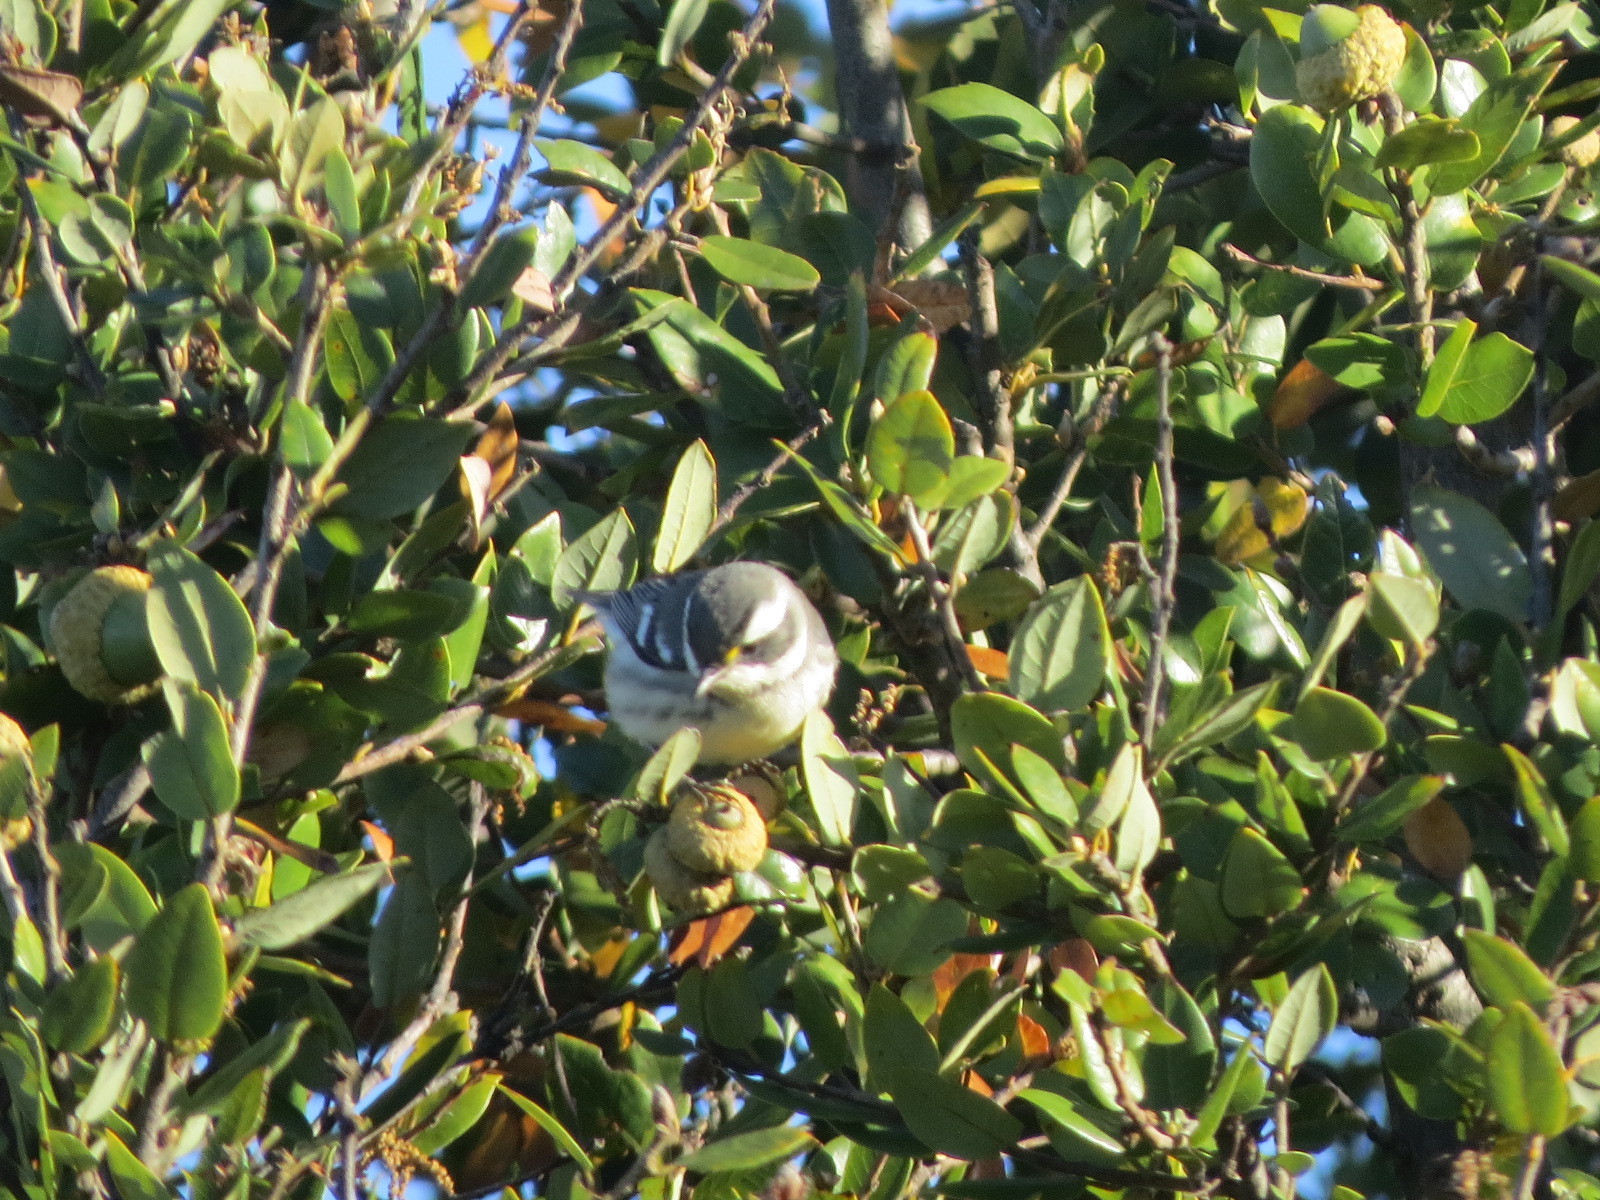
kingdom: Animalia
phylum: Chordata
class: Aves
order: Passeriformes
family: Parulidae
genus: Setophaga
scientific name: Setophaga nigrescens
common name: Black-throated gray warbler
